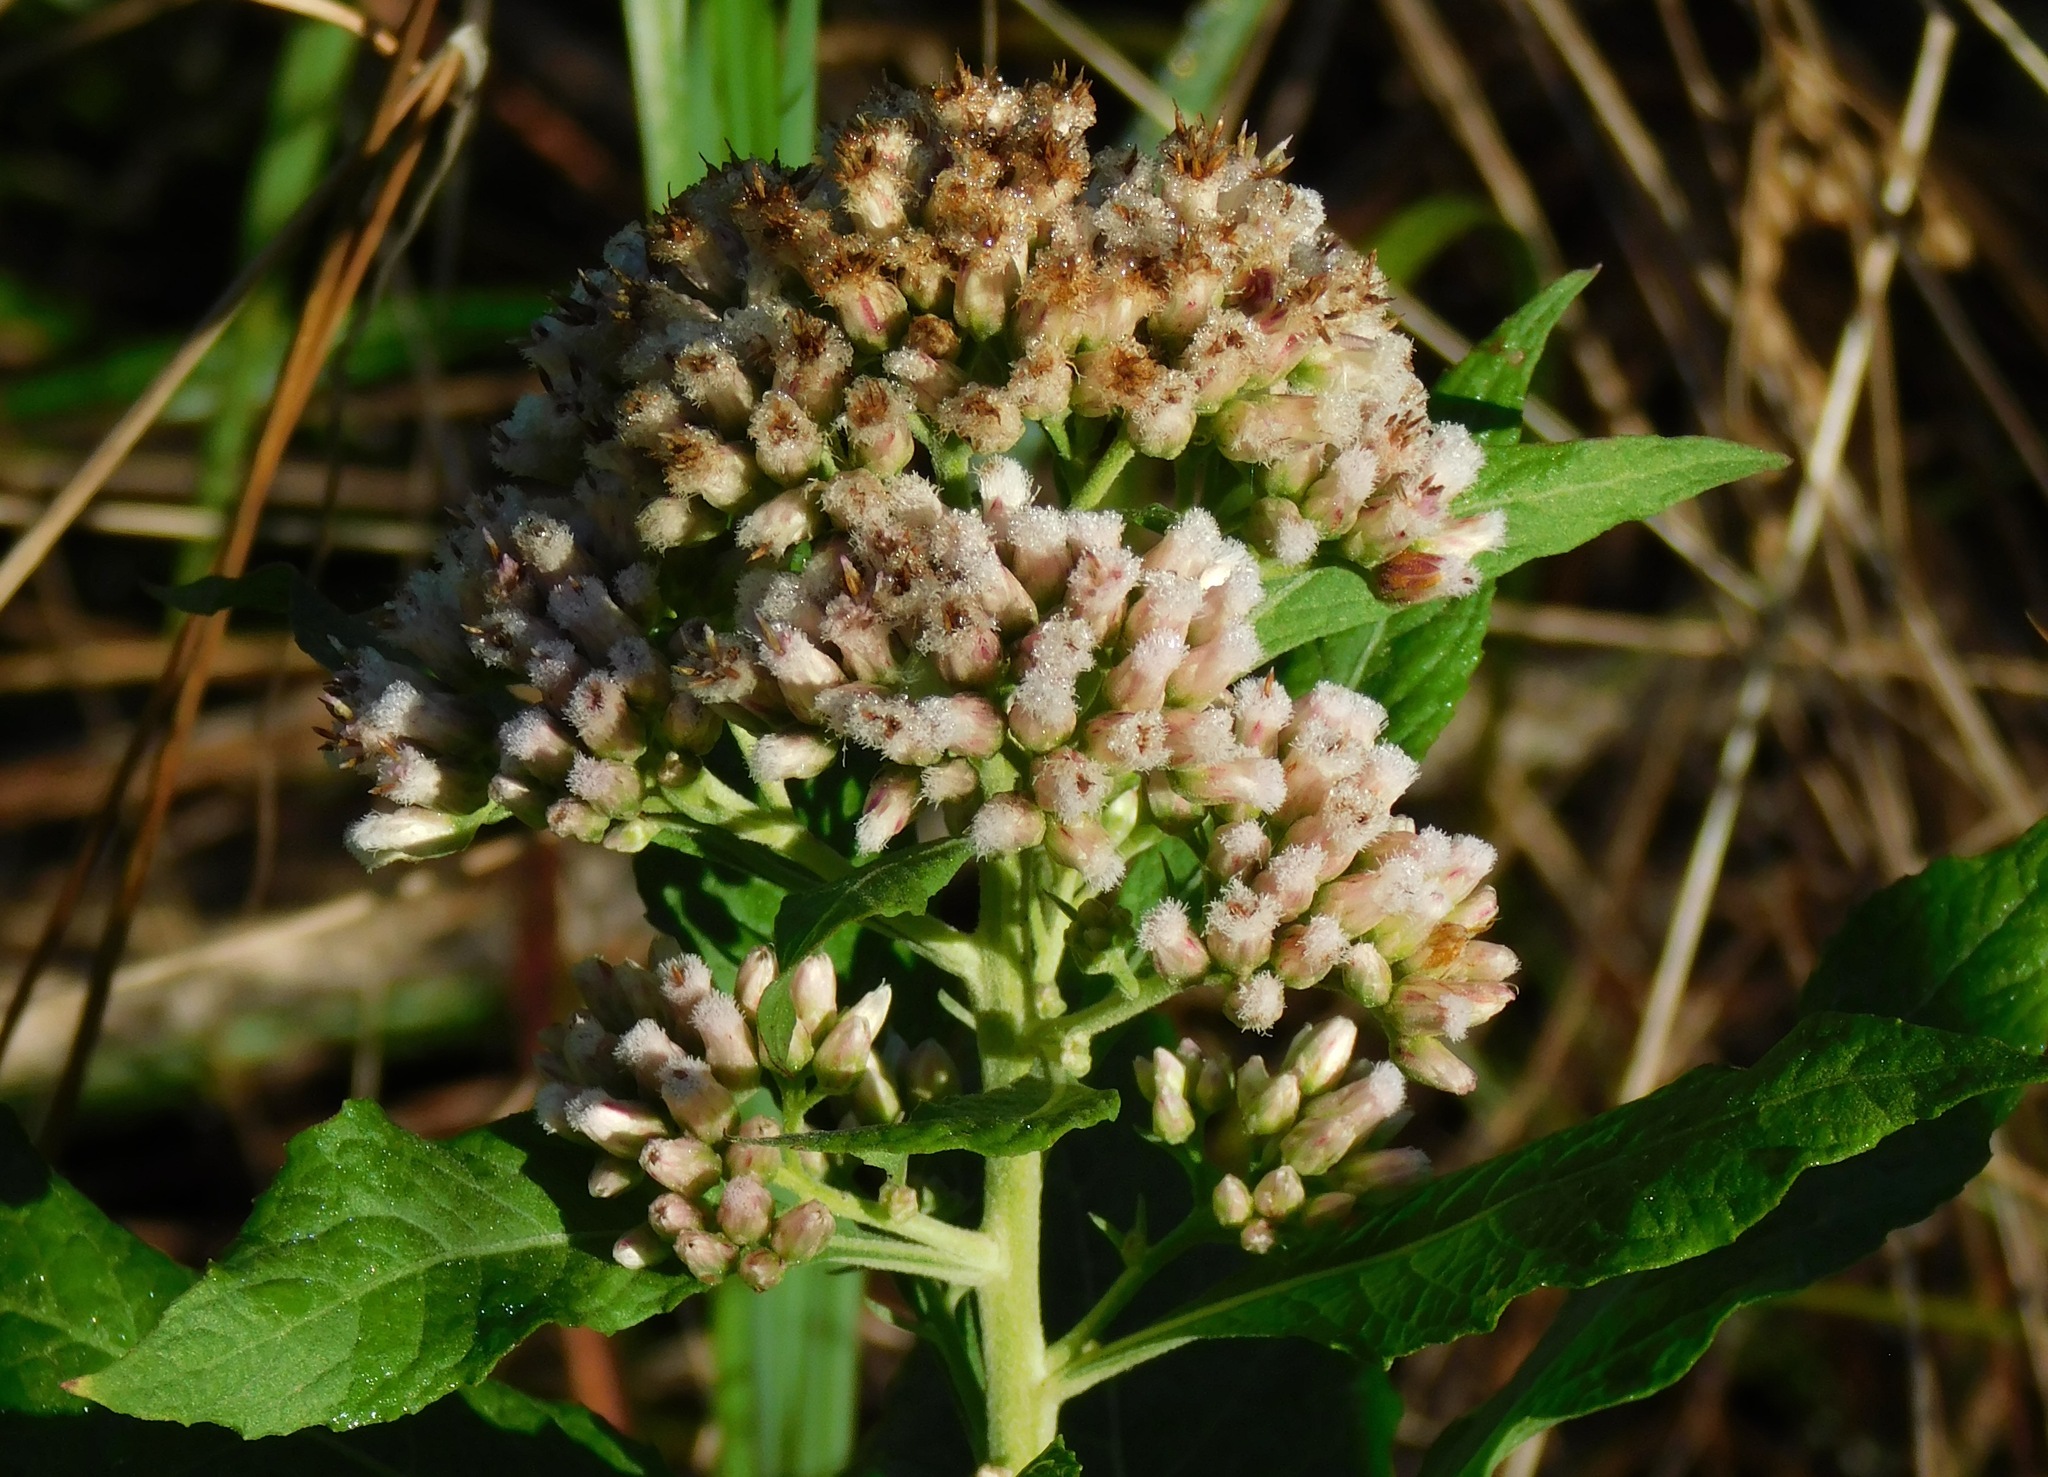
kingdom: Plantae
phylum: Tracheophyta
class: Magnoliopsida
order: Asterales
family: Asteraceae
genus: Pluchea
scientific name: Pluchea odorata
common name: Saltmarsh fleabane
